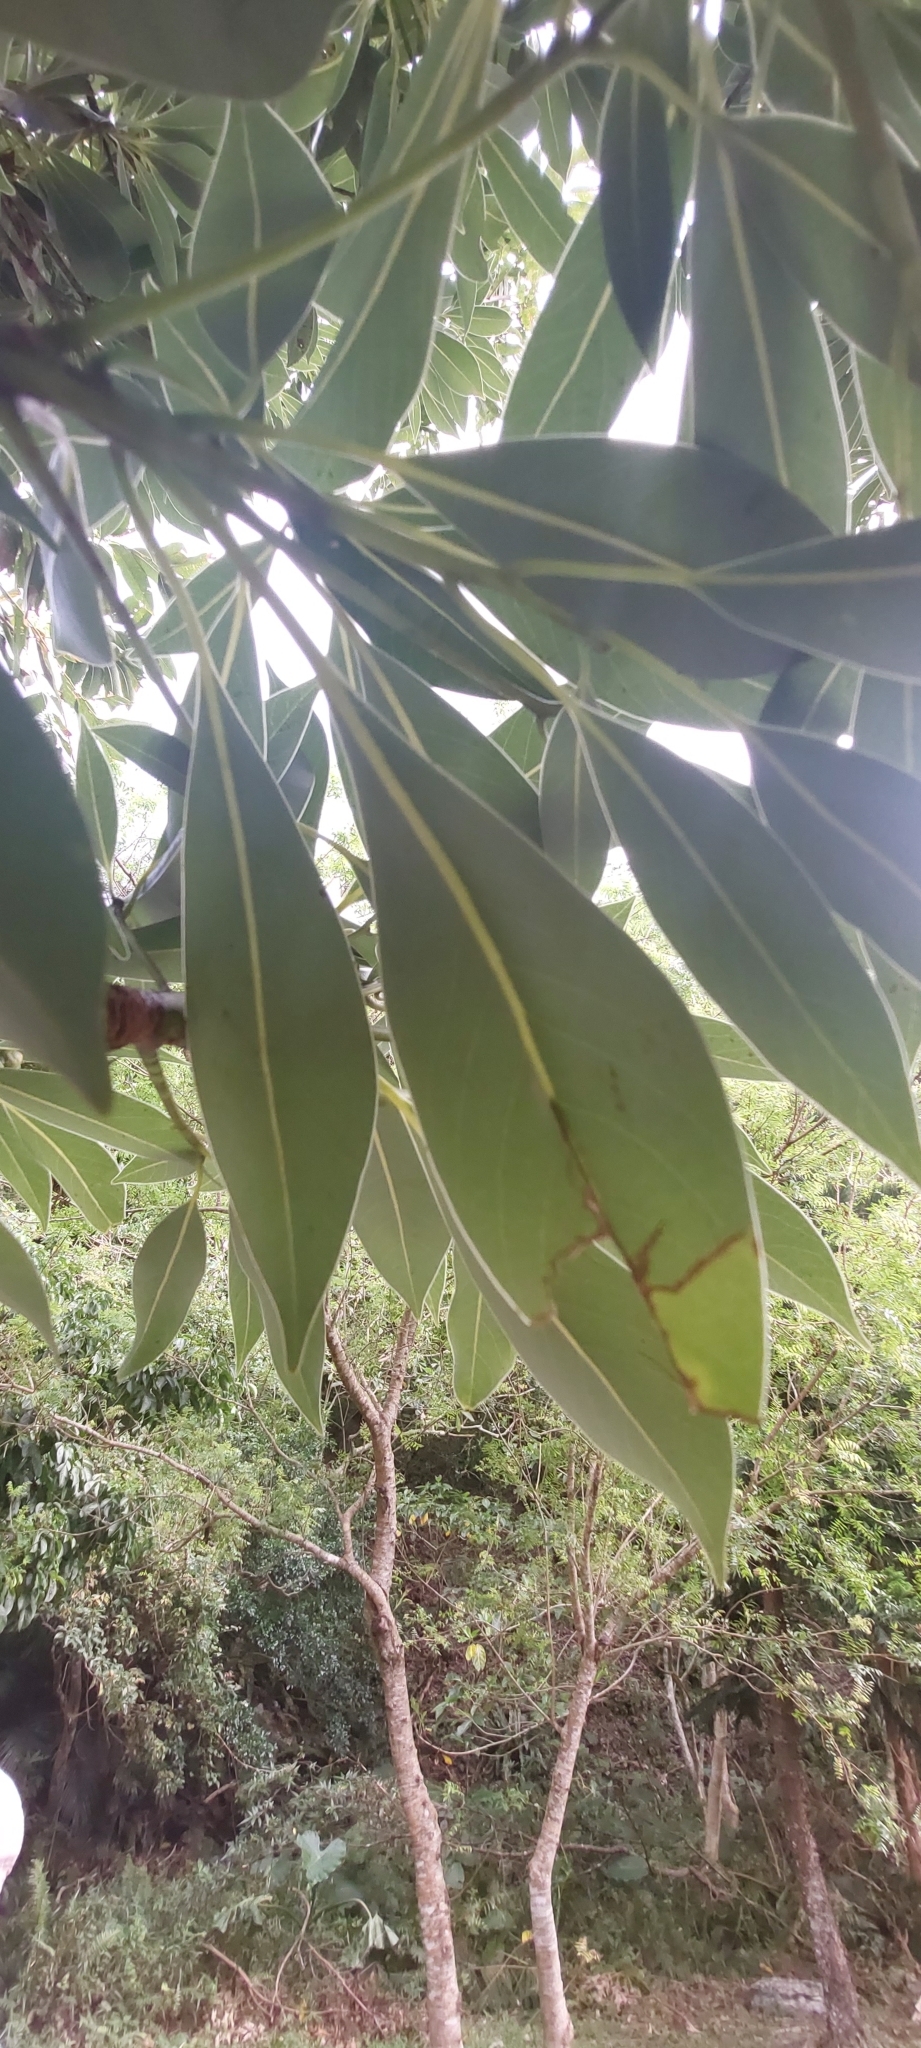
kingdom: Plantae
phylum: Tracheophyta
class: Magnoliopsida
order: Laurales
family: Lauraceae
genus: Machilus
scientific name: Machilus thunbergii
